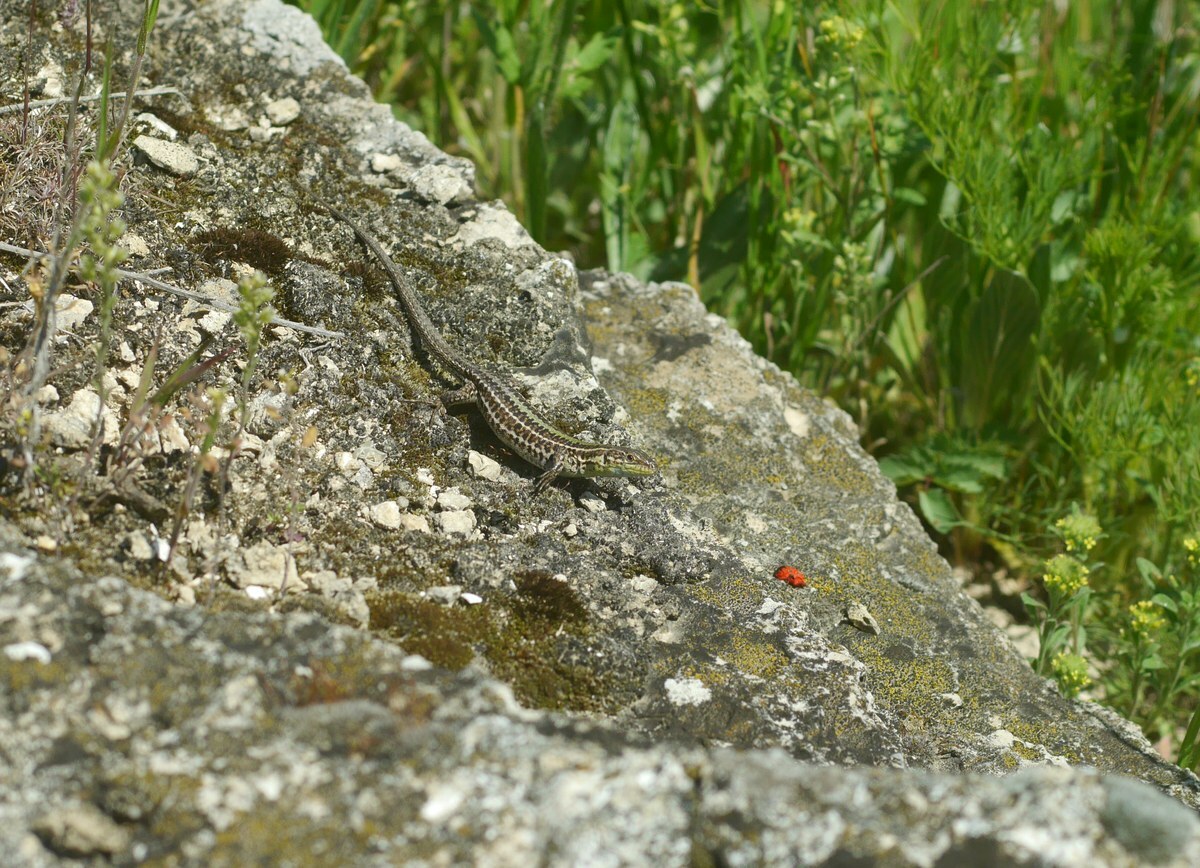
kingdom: Animalia
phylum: Chordata
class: Squamata
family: Lacertidae
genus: Podarcis
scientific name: Podarcis tauricus
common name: Balkan wall lizard
